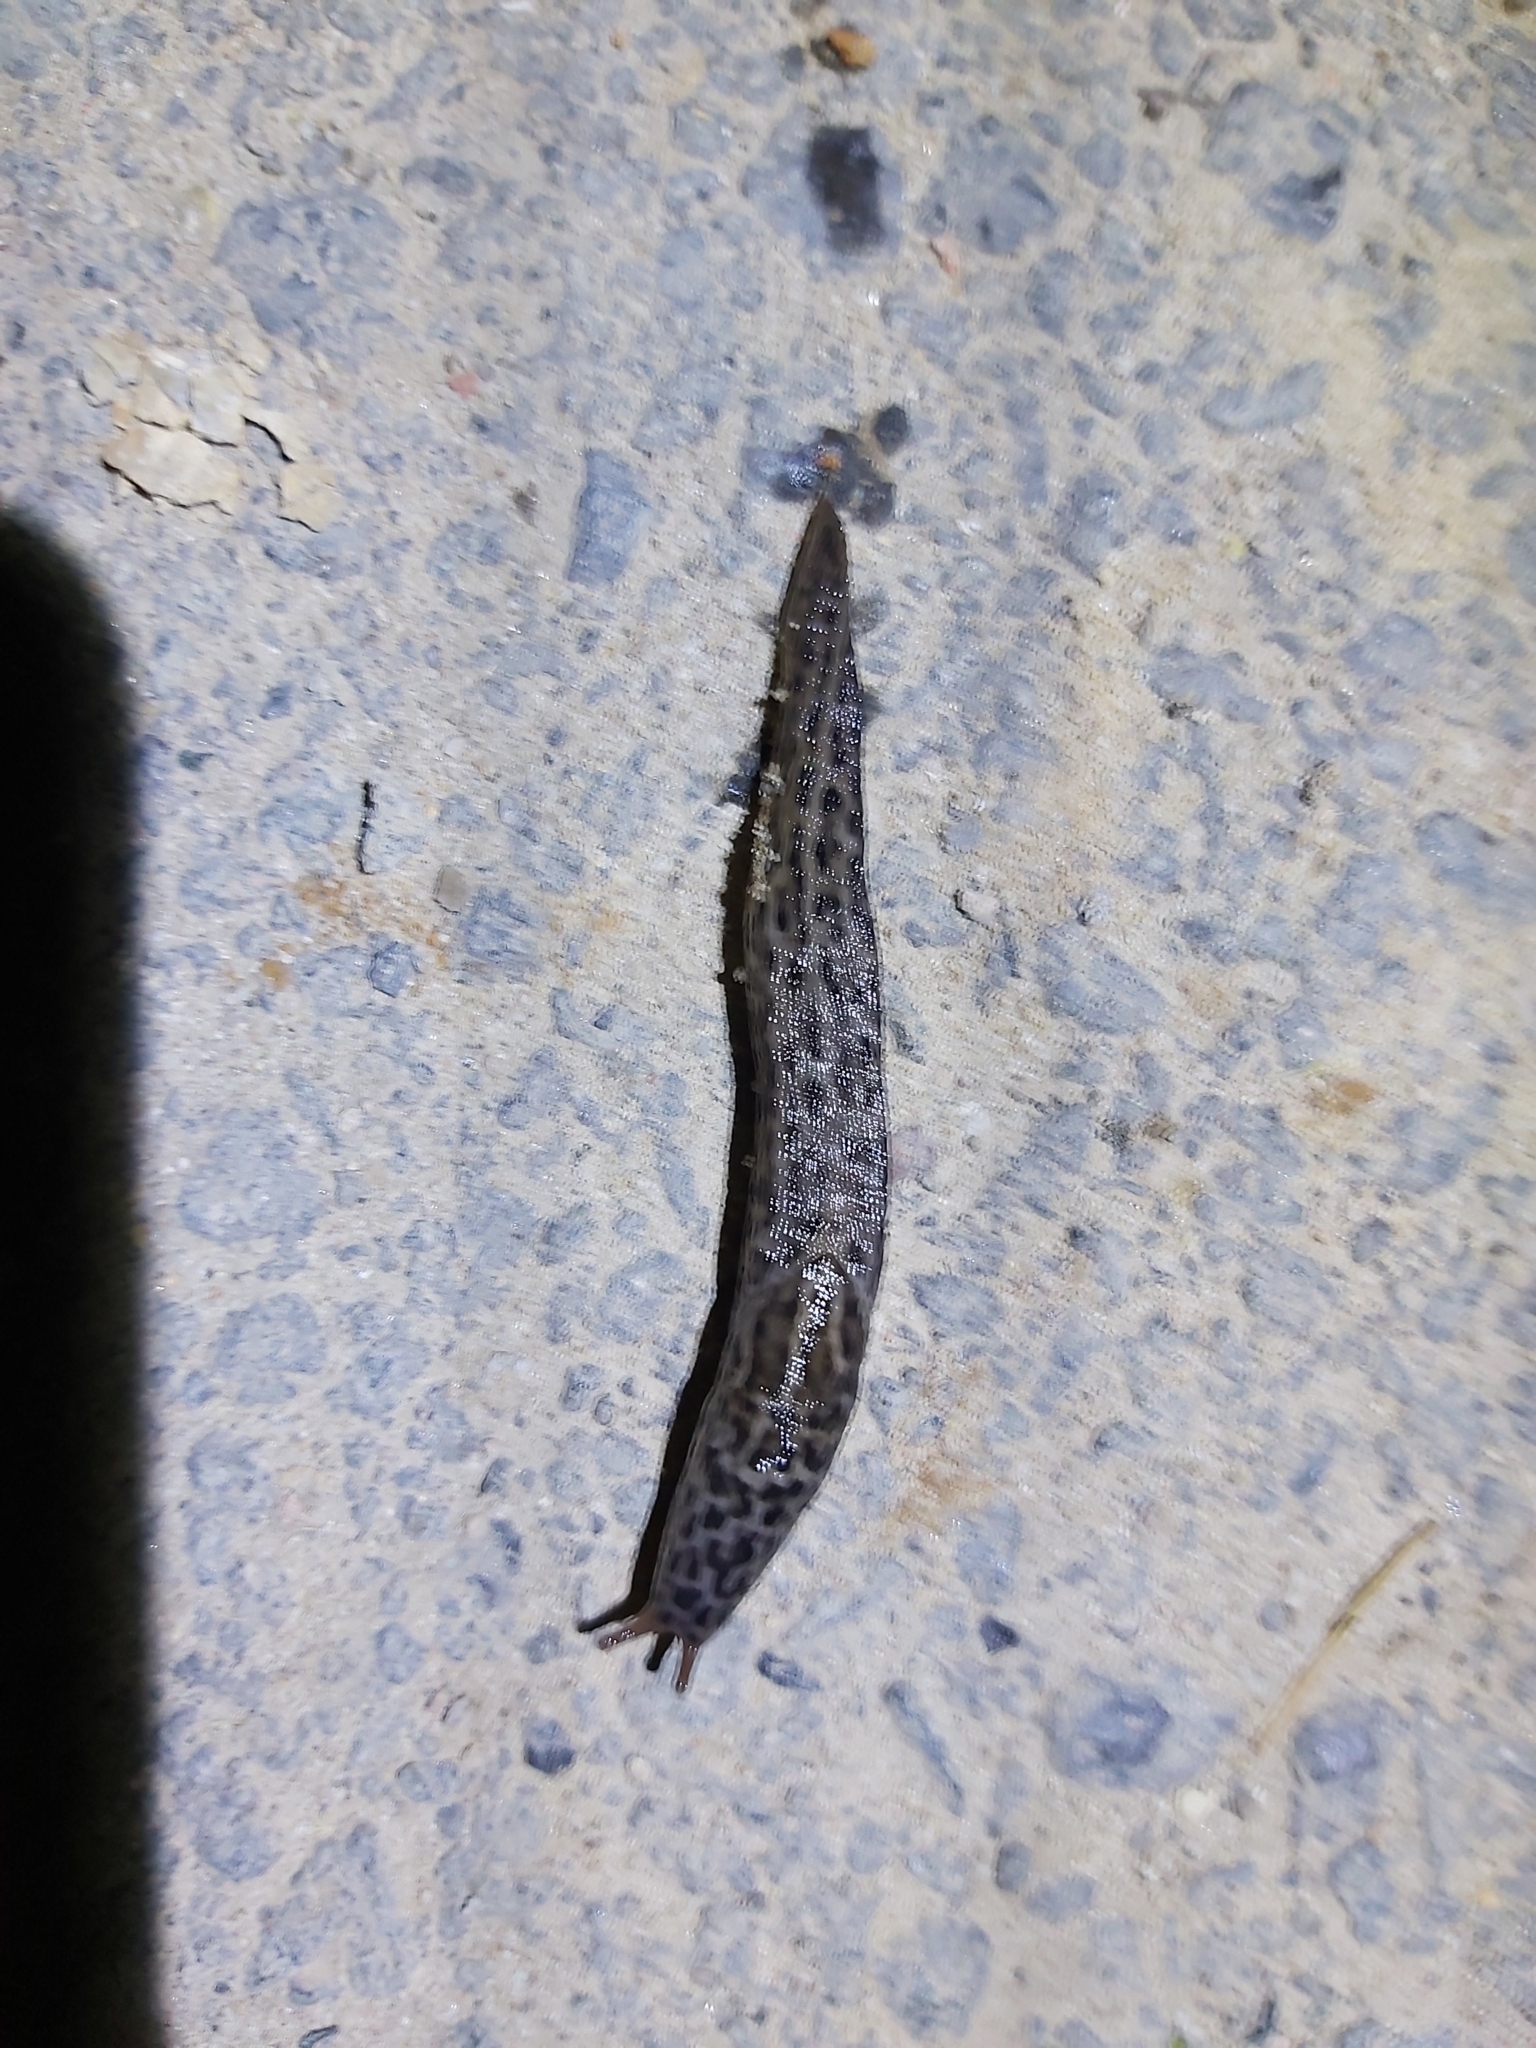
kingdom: Animalia
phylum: Mollusca
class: Gastropoda
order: Stylommatophora
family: Limacidae
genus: Limax
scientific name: Limax maximus
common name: Great grey slug
